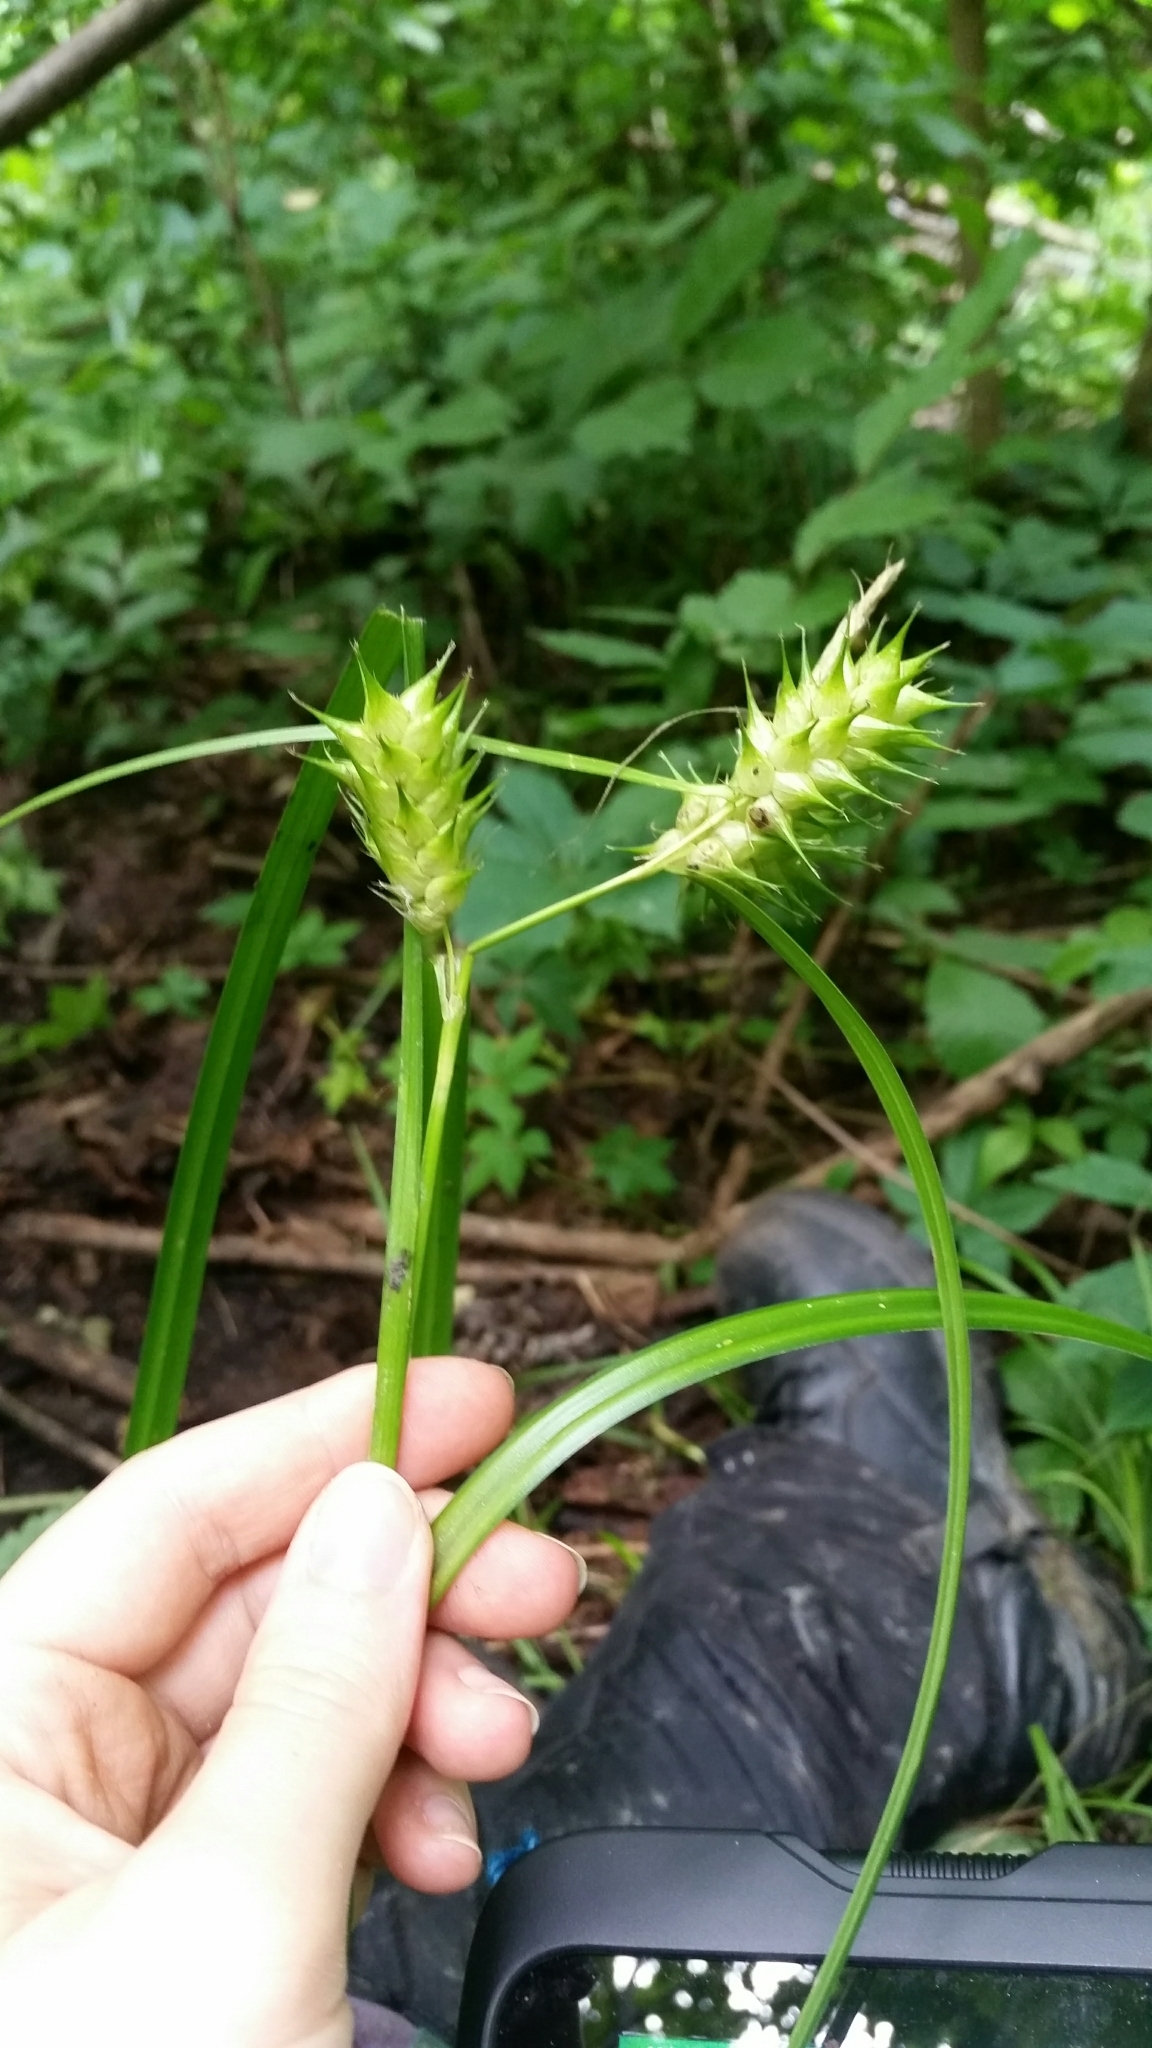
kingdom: Plantae
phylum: Tracheophyta
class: Liliopsida
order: Poales
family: Cyperaceae
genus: Carex
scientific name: Carex lupulina
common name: Hop sedge
